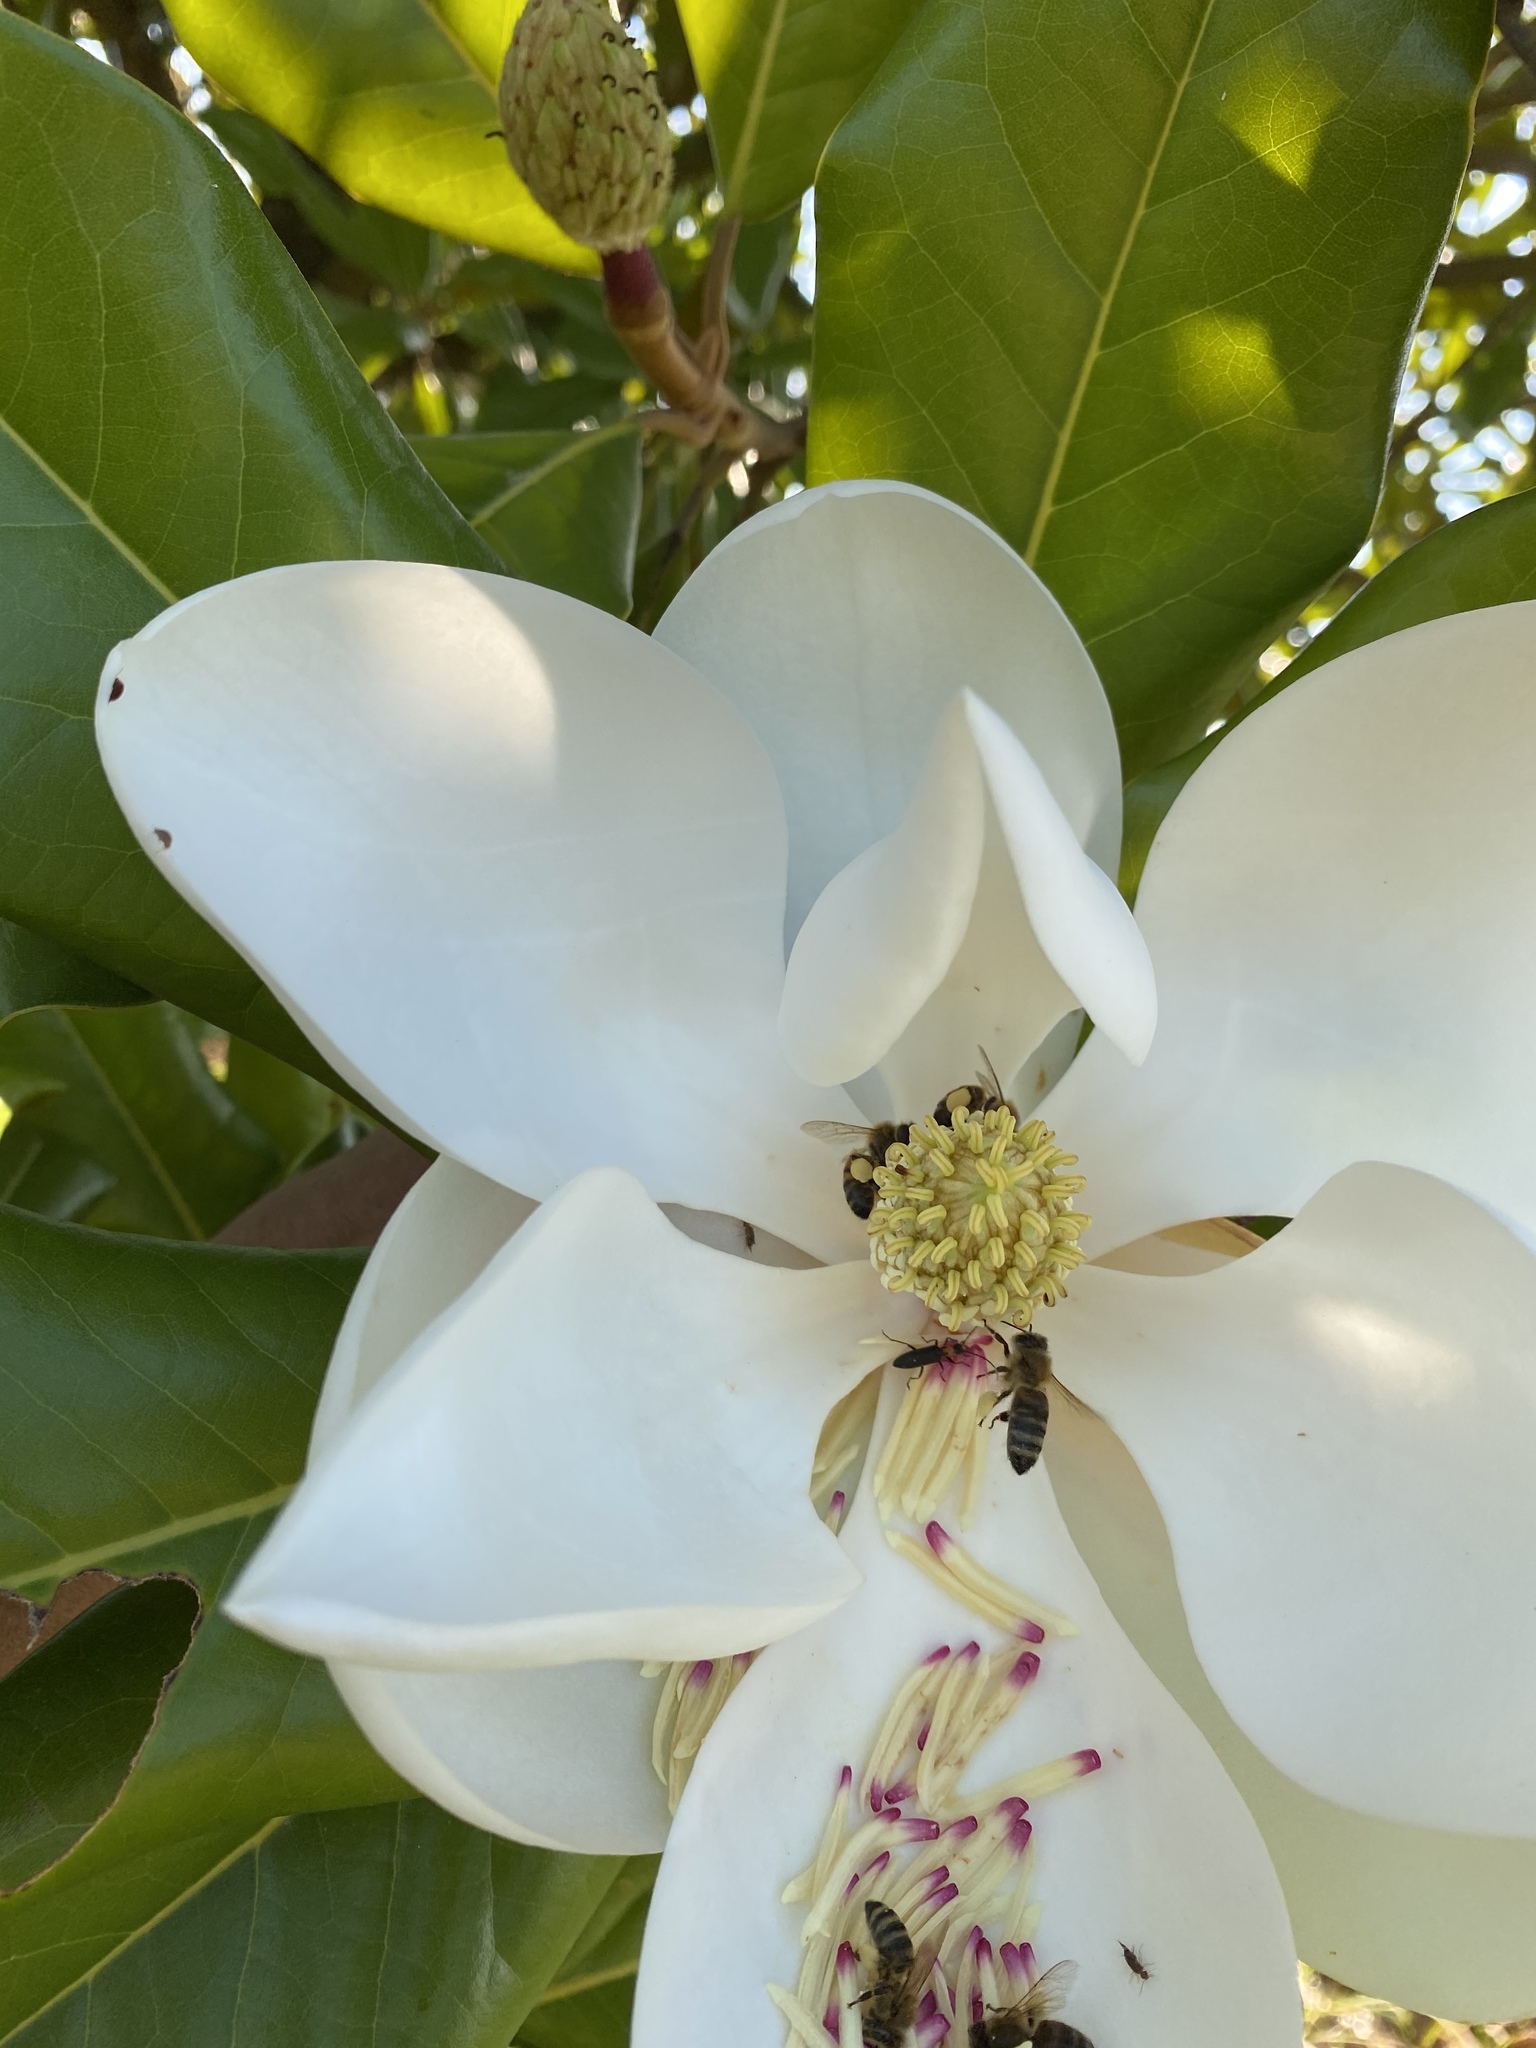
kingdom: Animalia
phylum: Arthropoda
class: Insecta
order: Hymenoptera
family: Apidae
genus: Apis
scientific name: Apis mellifera
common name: Honey bee
